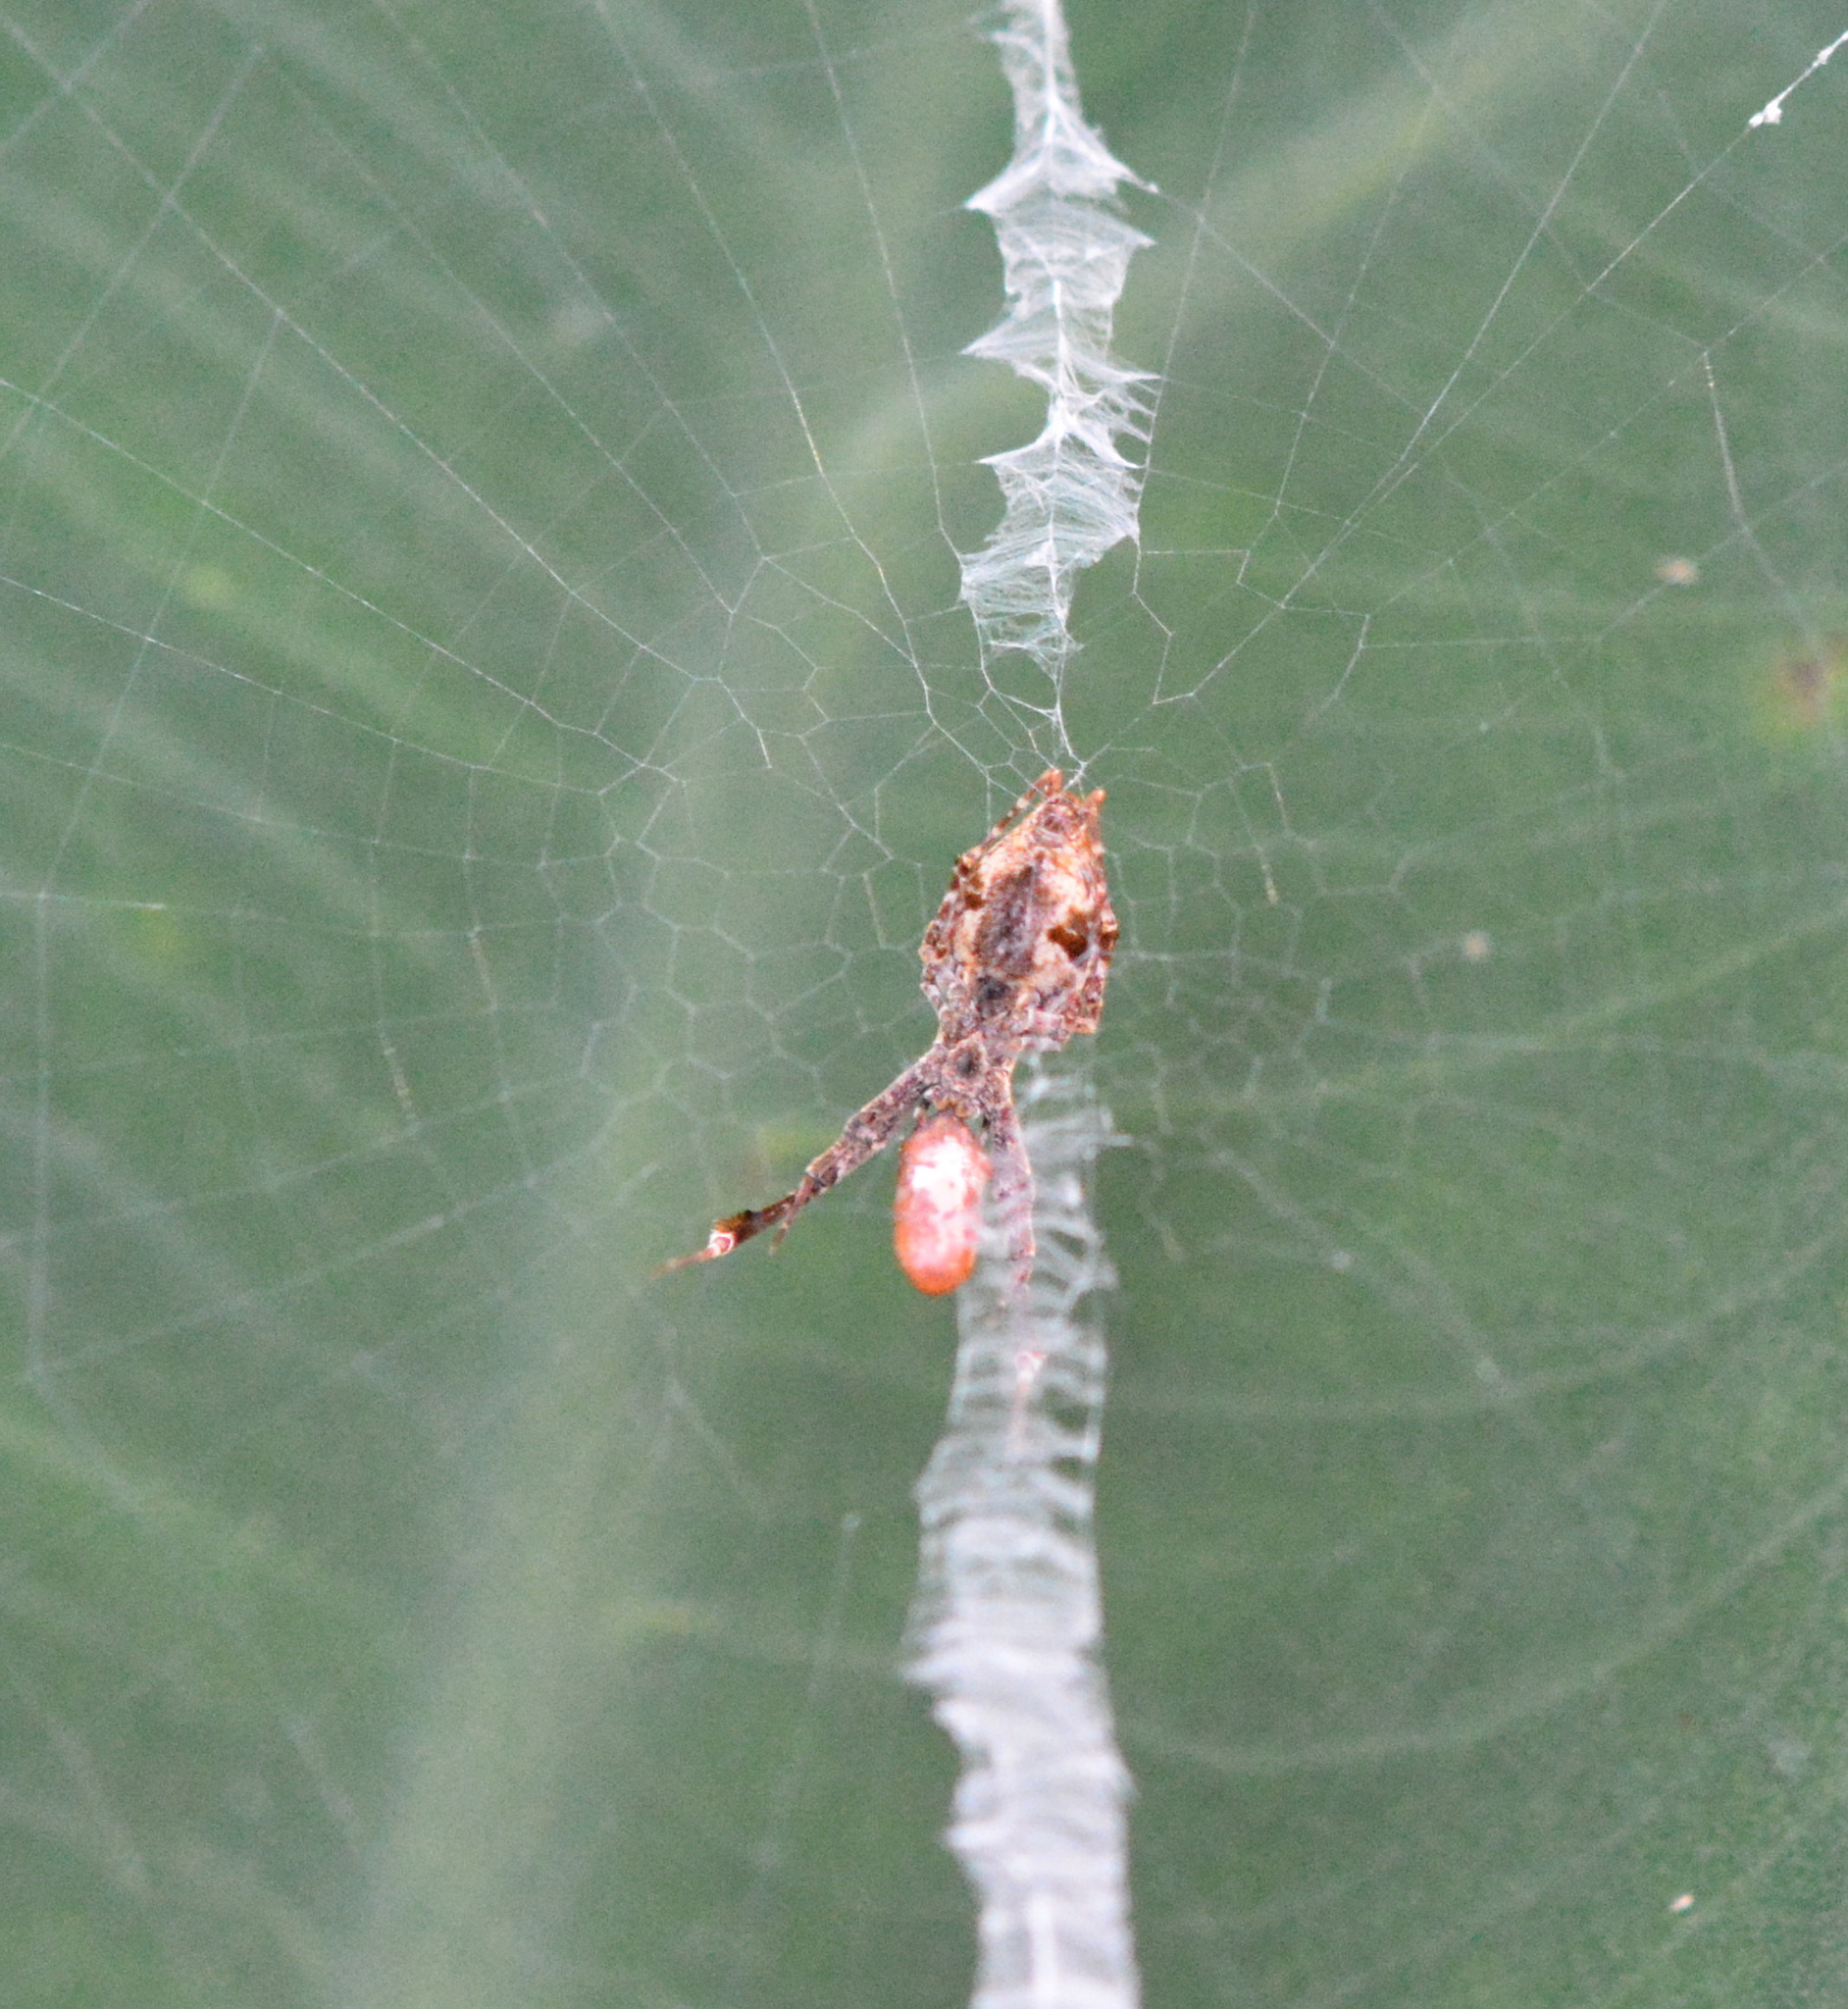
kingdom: Animalia
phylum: Arthropoda
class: Arachnida
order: Araneae
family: Uloboridae
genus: Uloborus
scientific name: Uloborus glomosus
